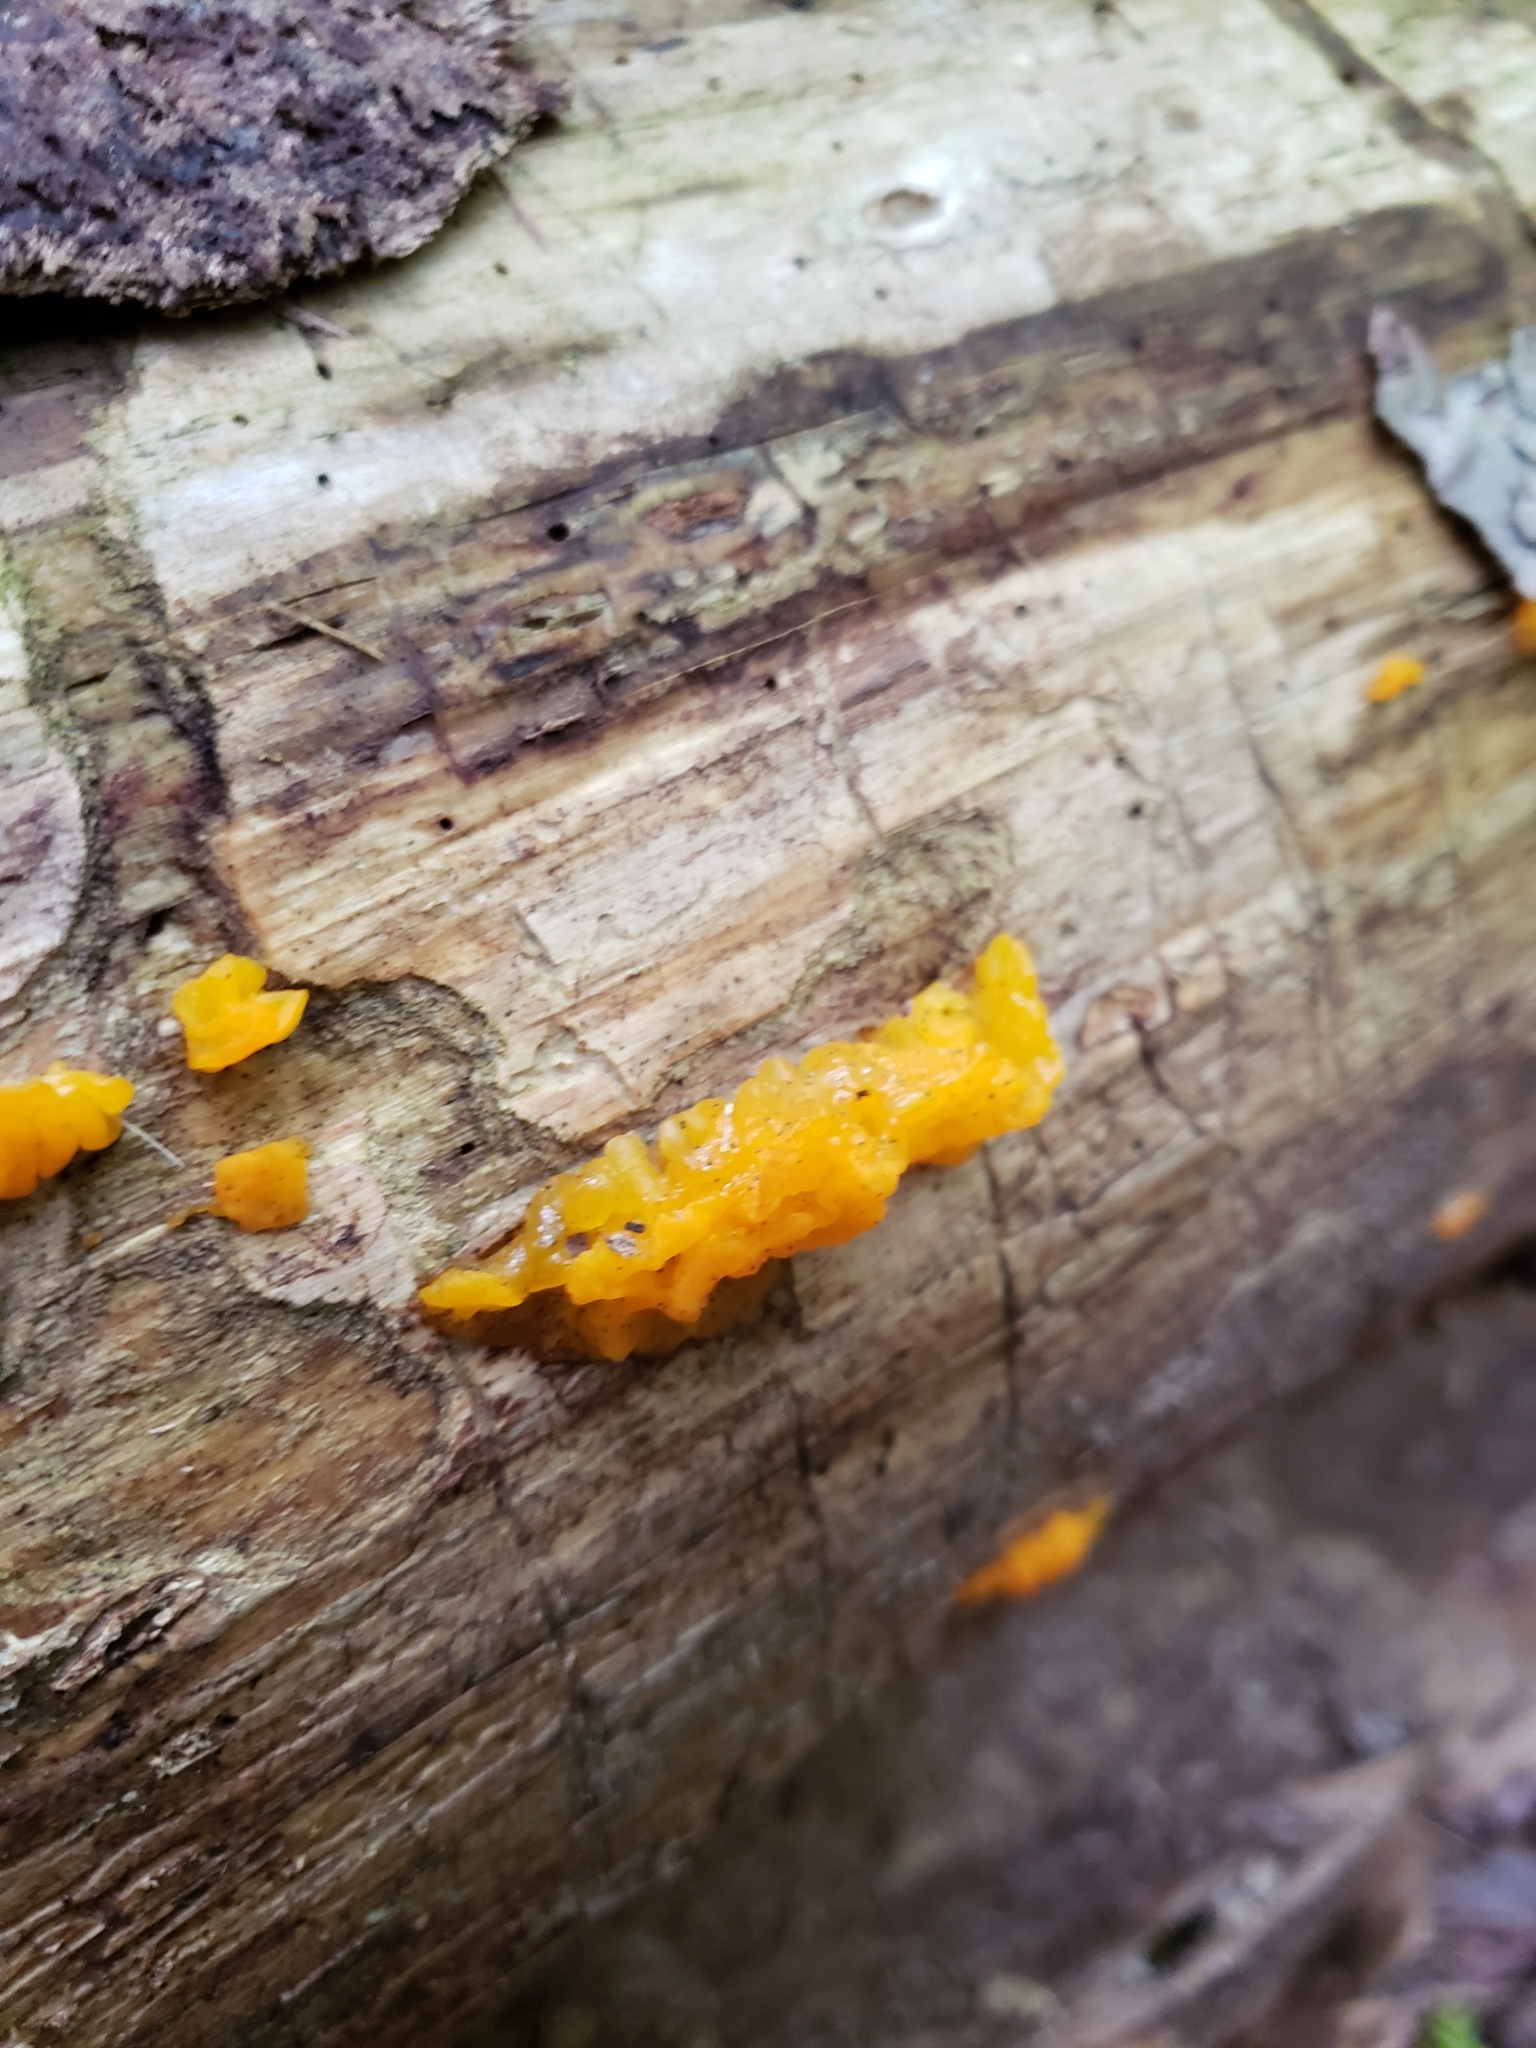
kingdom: Fungi
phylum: Basidiomycota
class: Dacrymycetes
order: Dacrymycetales
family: Dacrymycetaceae
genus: Dacrymyces
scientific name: Dacrymyces chrysospermus
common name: Orange jelly spot
